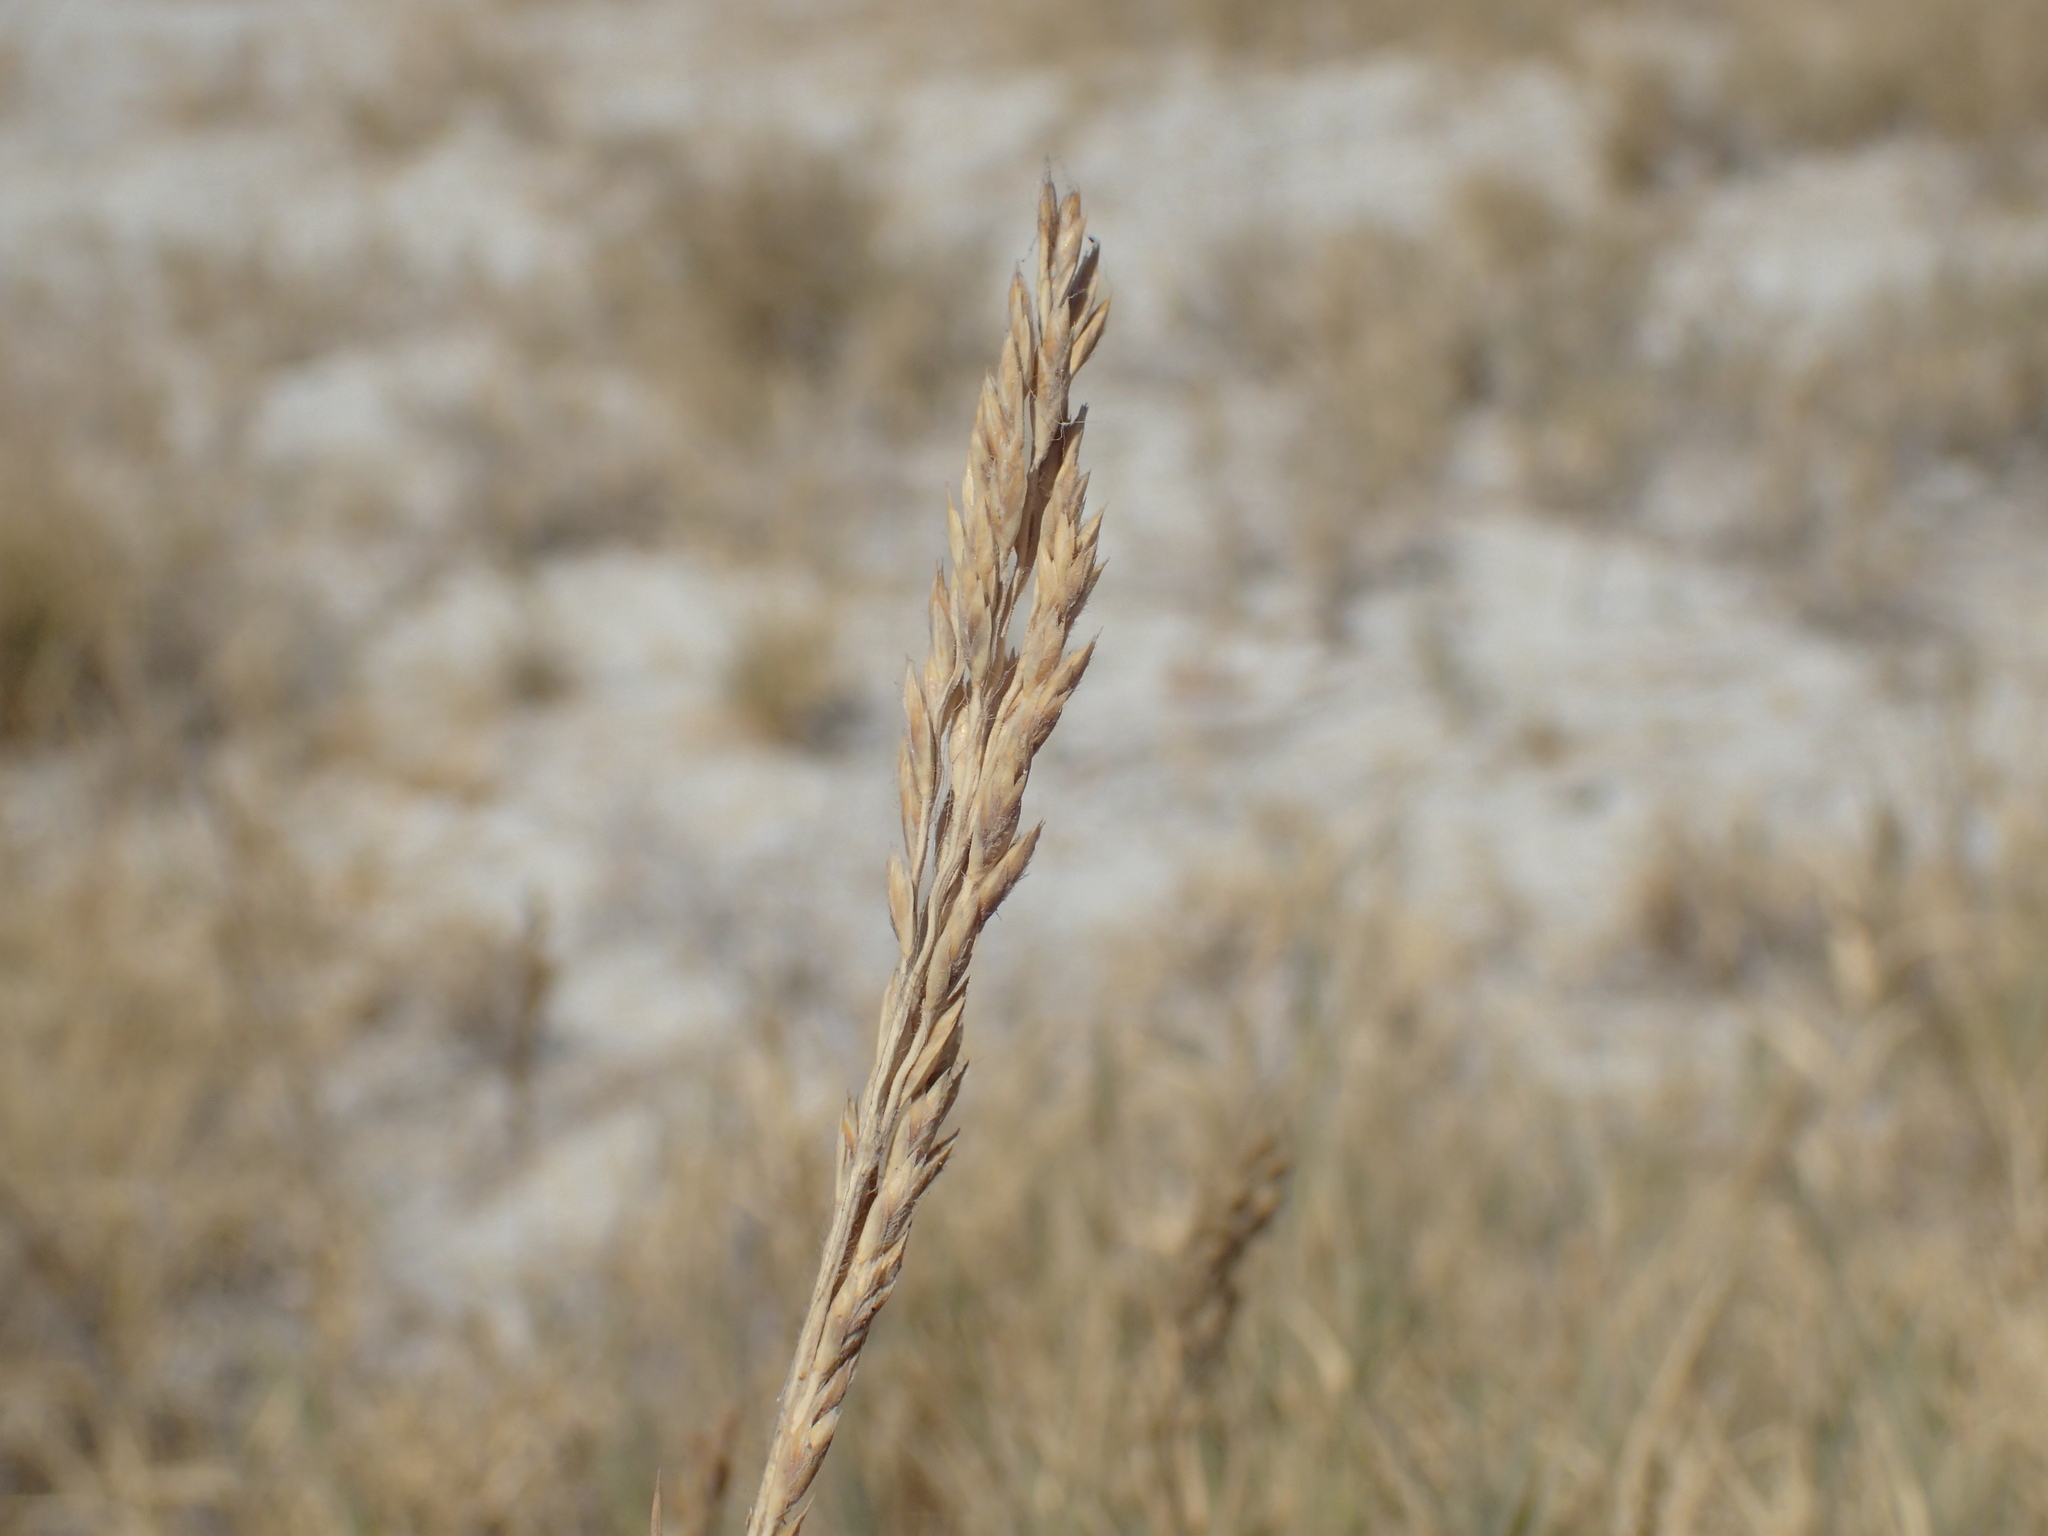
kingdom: Plantae
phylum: Tracheophyta
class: Liliopsida
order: Poales
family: Poaceae
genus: Odyssea
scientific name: Odyssea paucinervis
